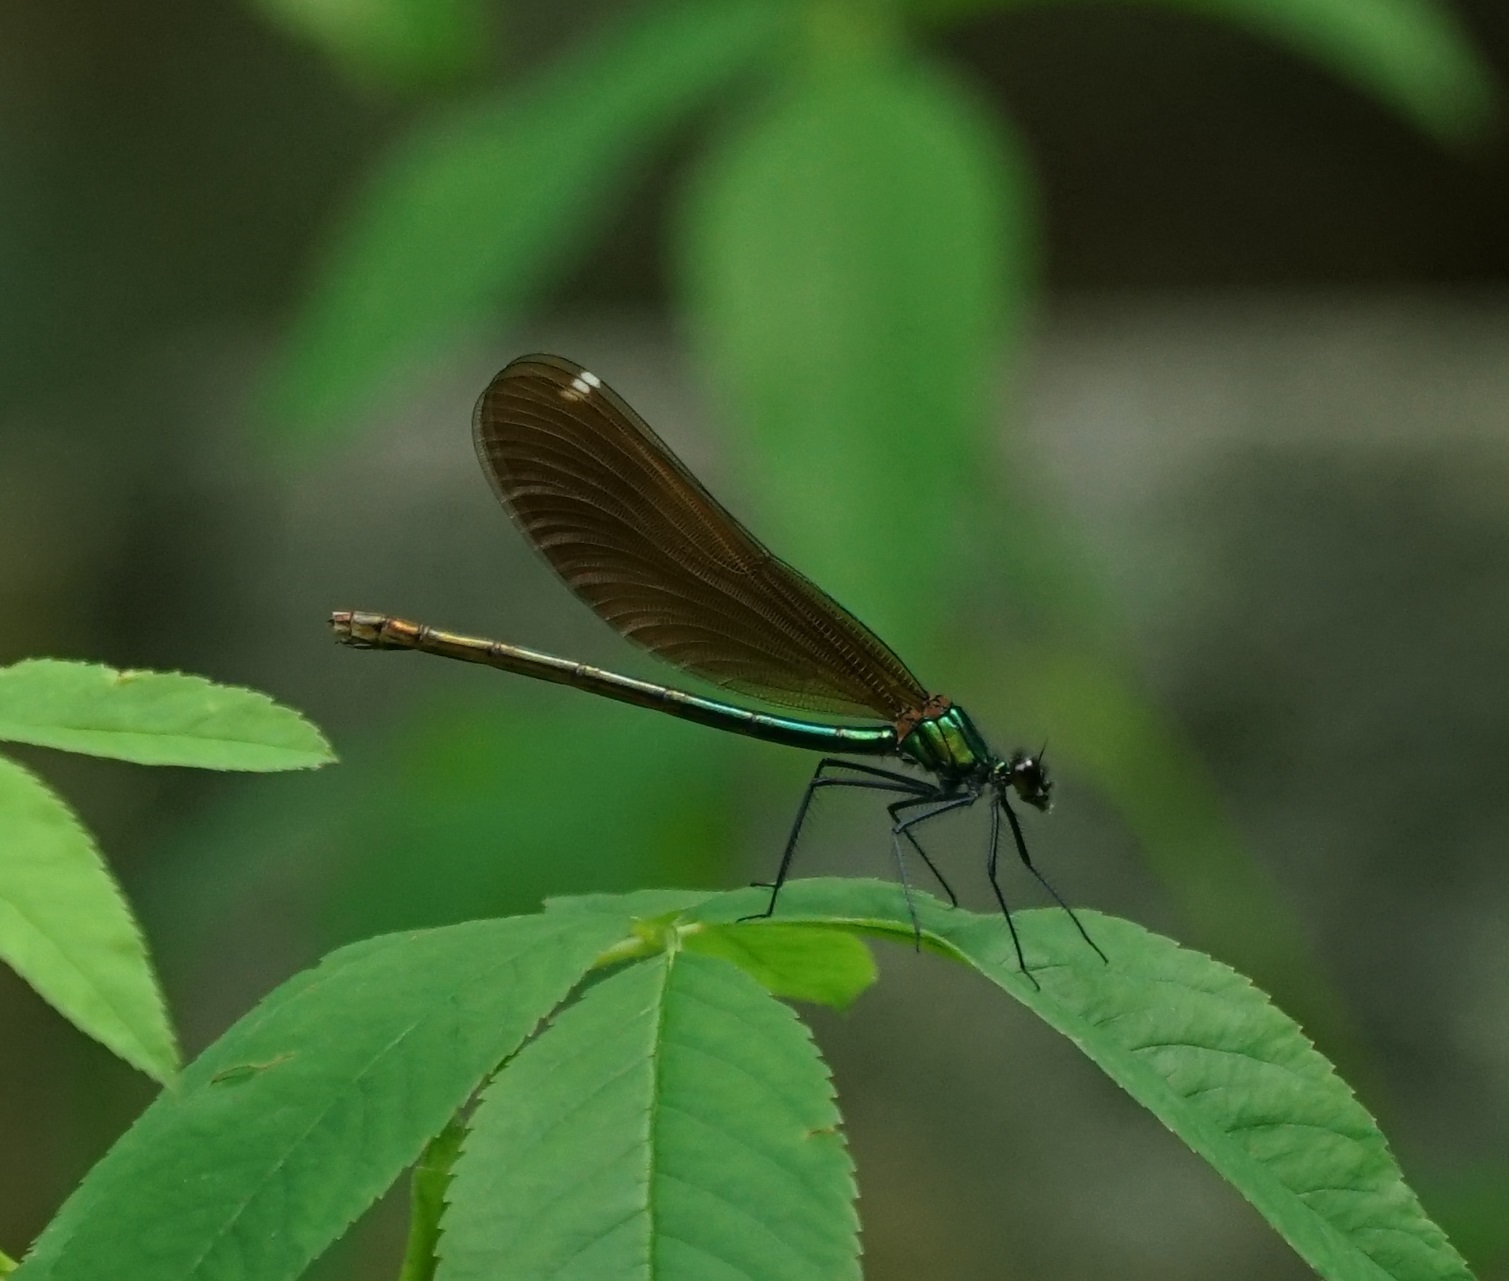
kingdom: Animalia
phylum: Arthropoda
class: Insecta
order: Odonata
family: Calopterygidae
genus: Calopteryx
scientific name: Calopteryx virgo
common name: Beautiful demoiselle
